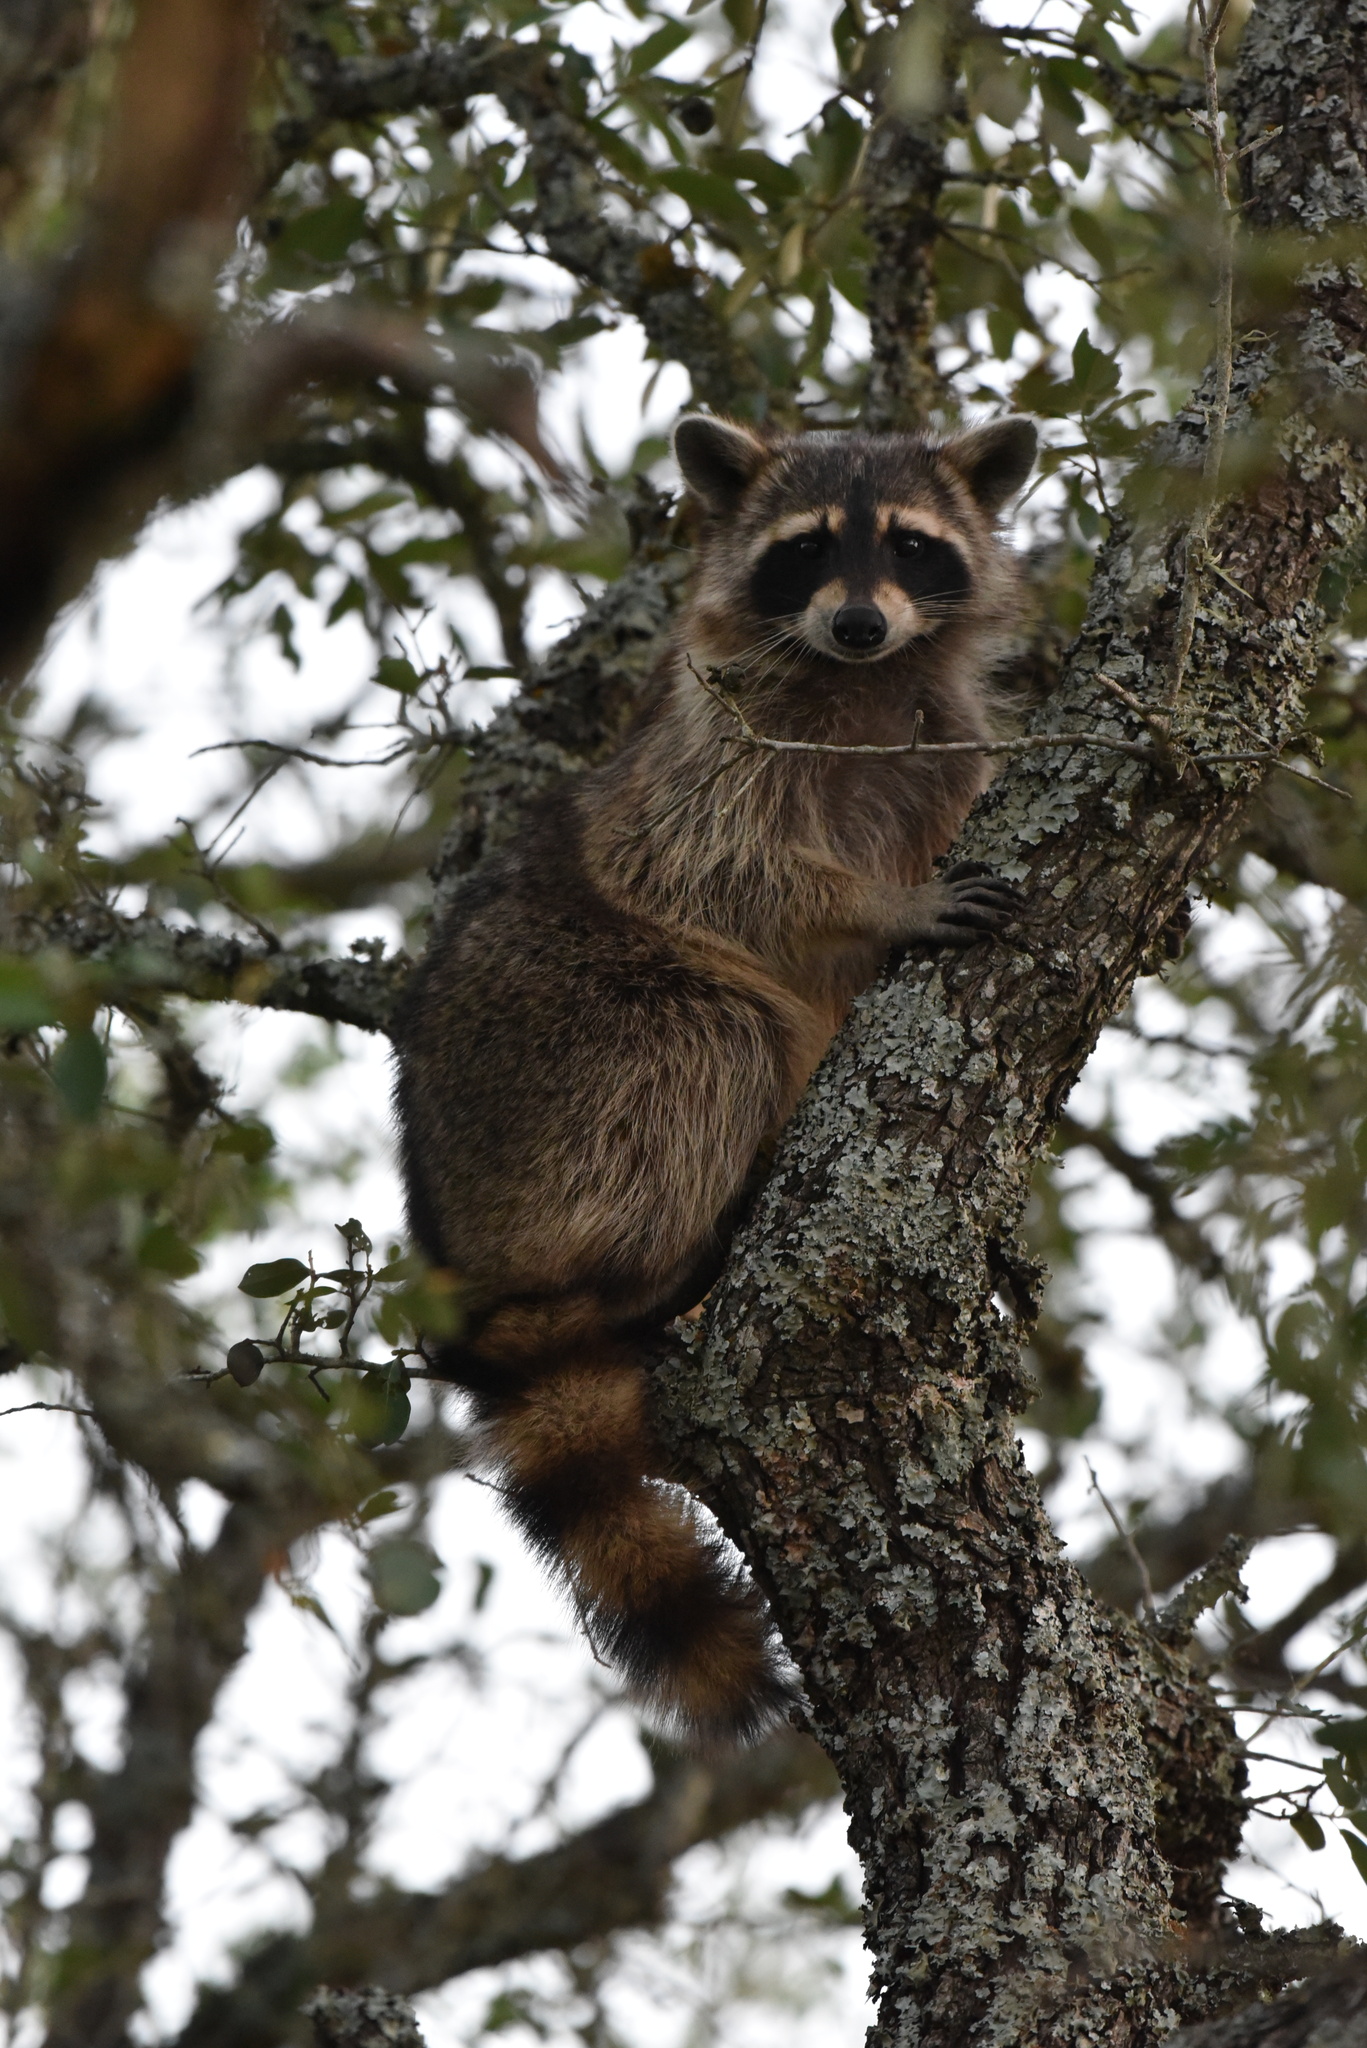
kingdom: Animalia
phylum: Chordata
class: Mammalia
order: Carnivora
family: Procyonidae
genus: Procyon
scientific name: Procyon lotor
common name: Raccoon
